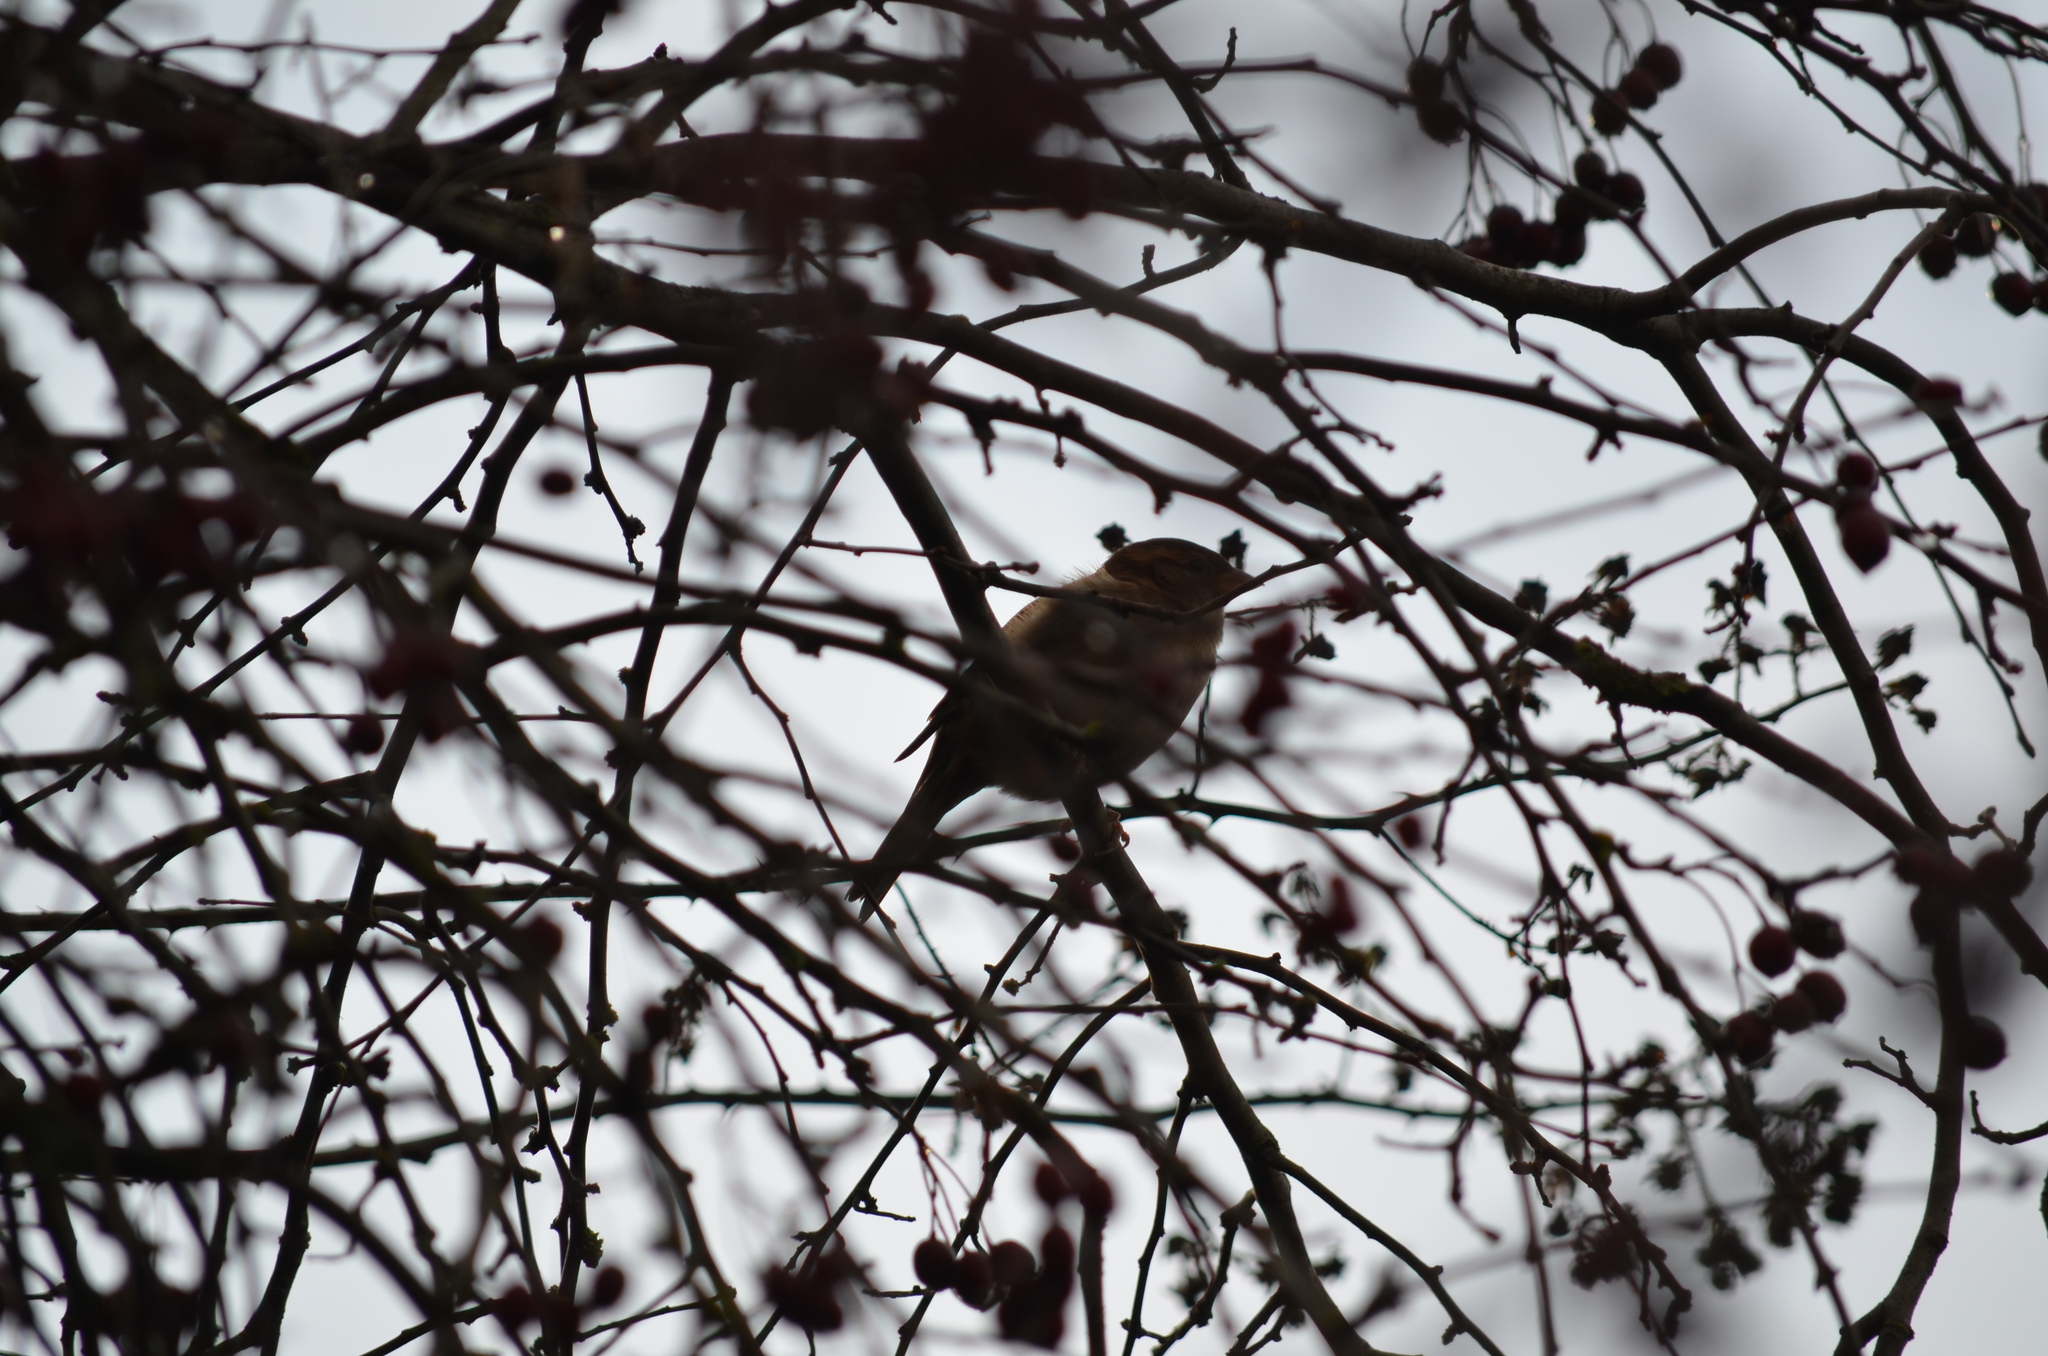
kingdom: Animalia
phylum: Chordata
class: Aves
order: Passeriformes
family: Passeridae
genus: Passer
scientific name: Passer domesticus
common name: House sparrow
